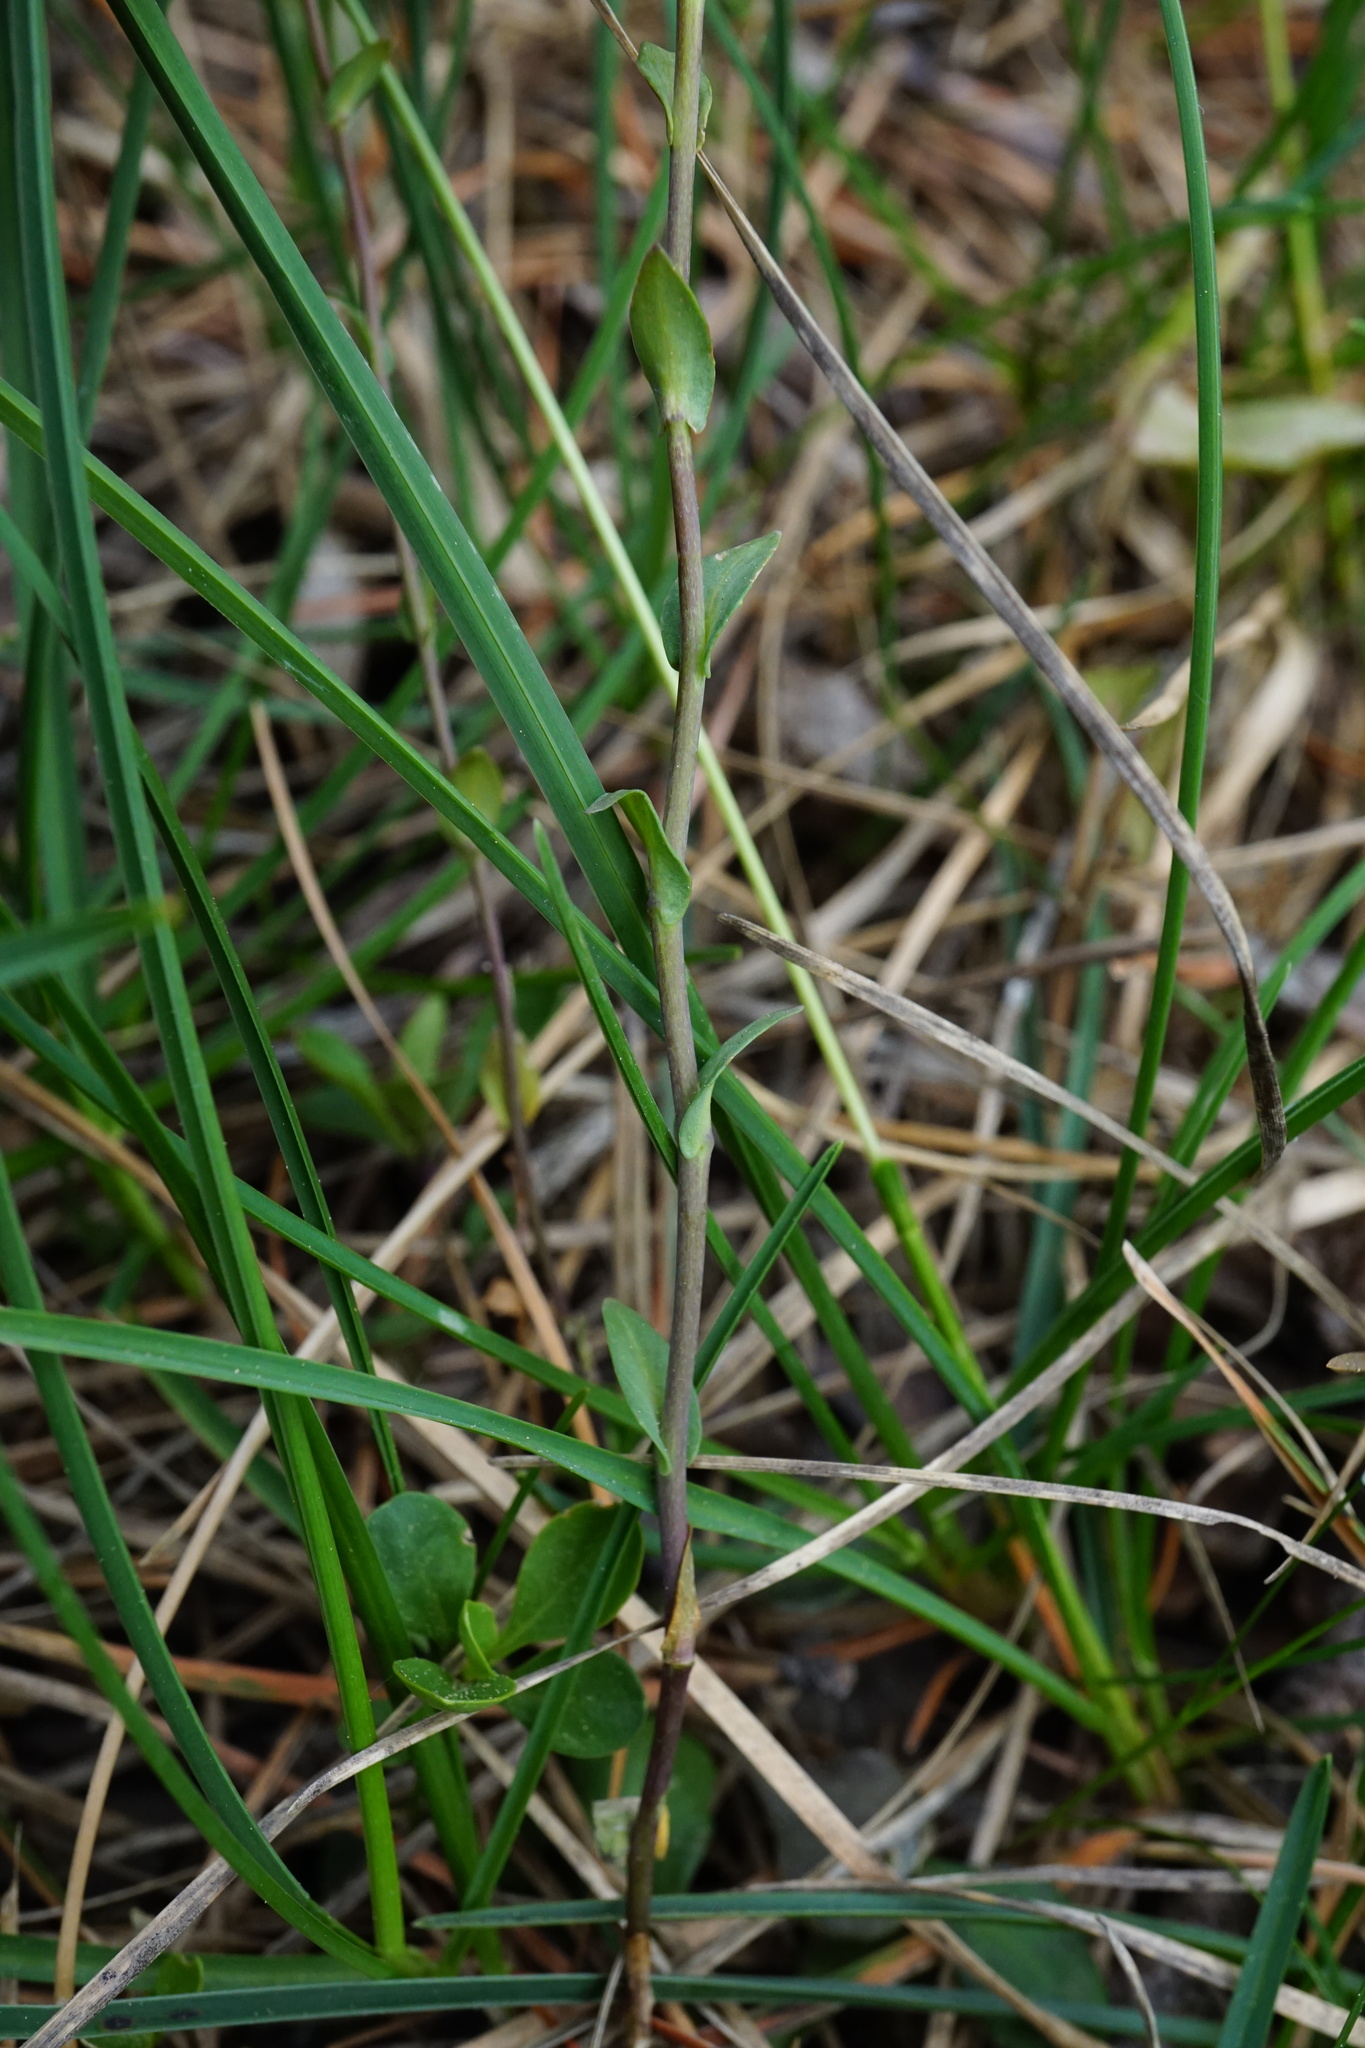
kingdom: Plantae
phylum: Tracheophyta
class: Magnoliopsida
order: Brassicales
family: Brassicaceae
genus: Noccaea
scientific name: Noccaea montana
